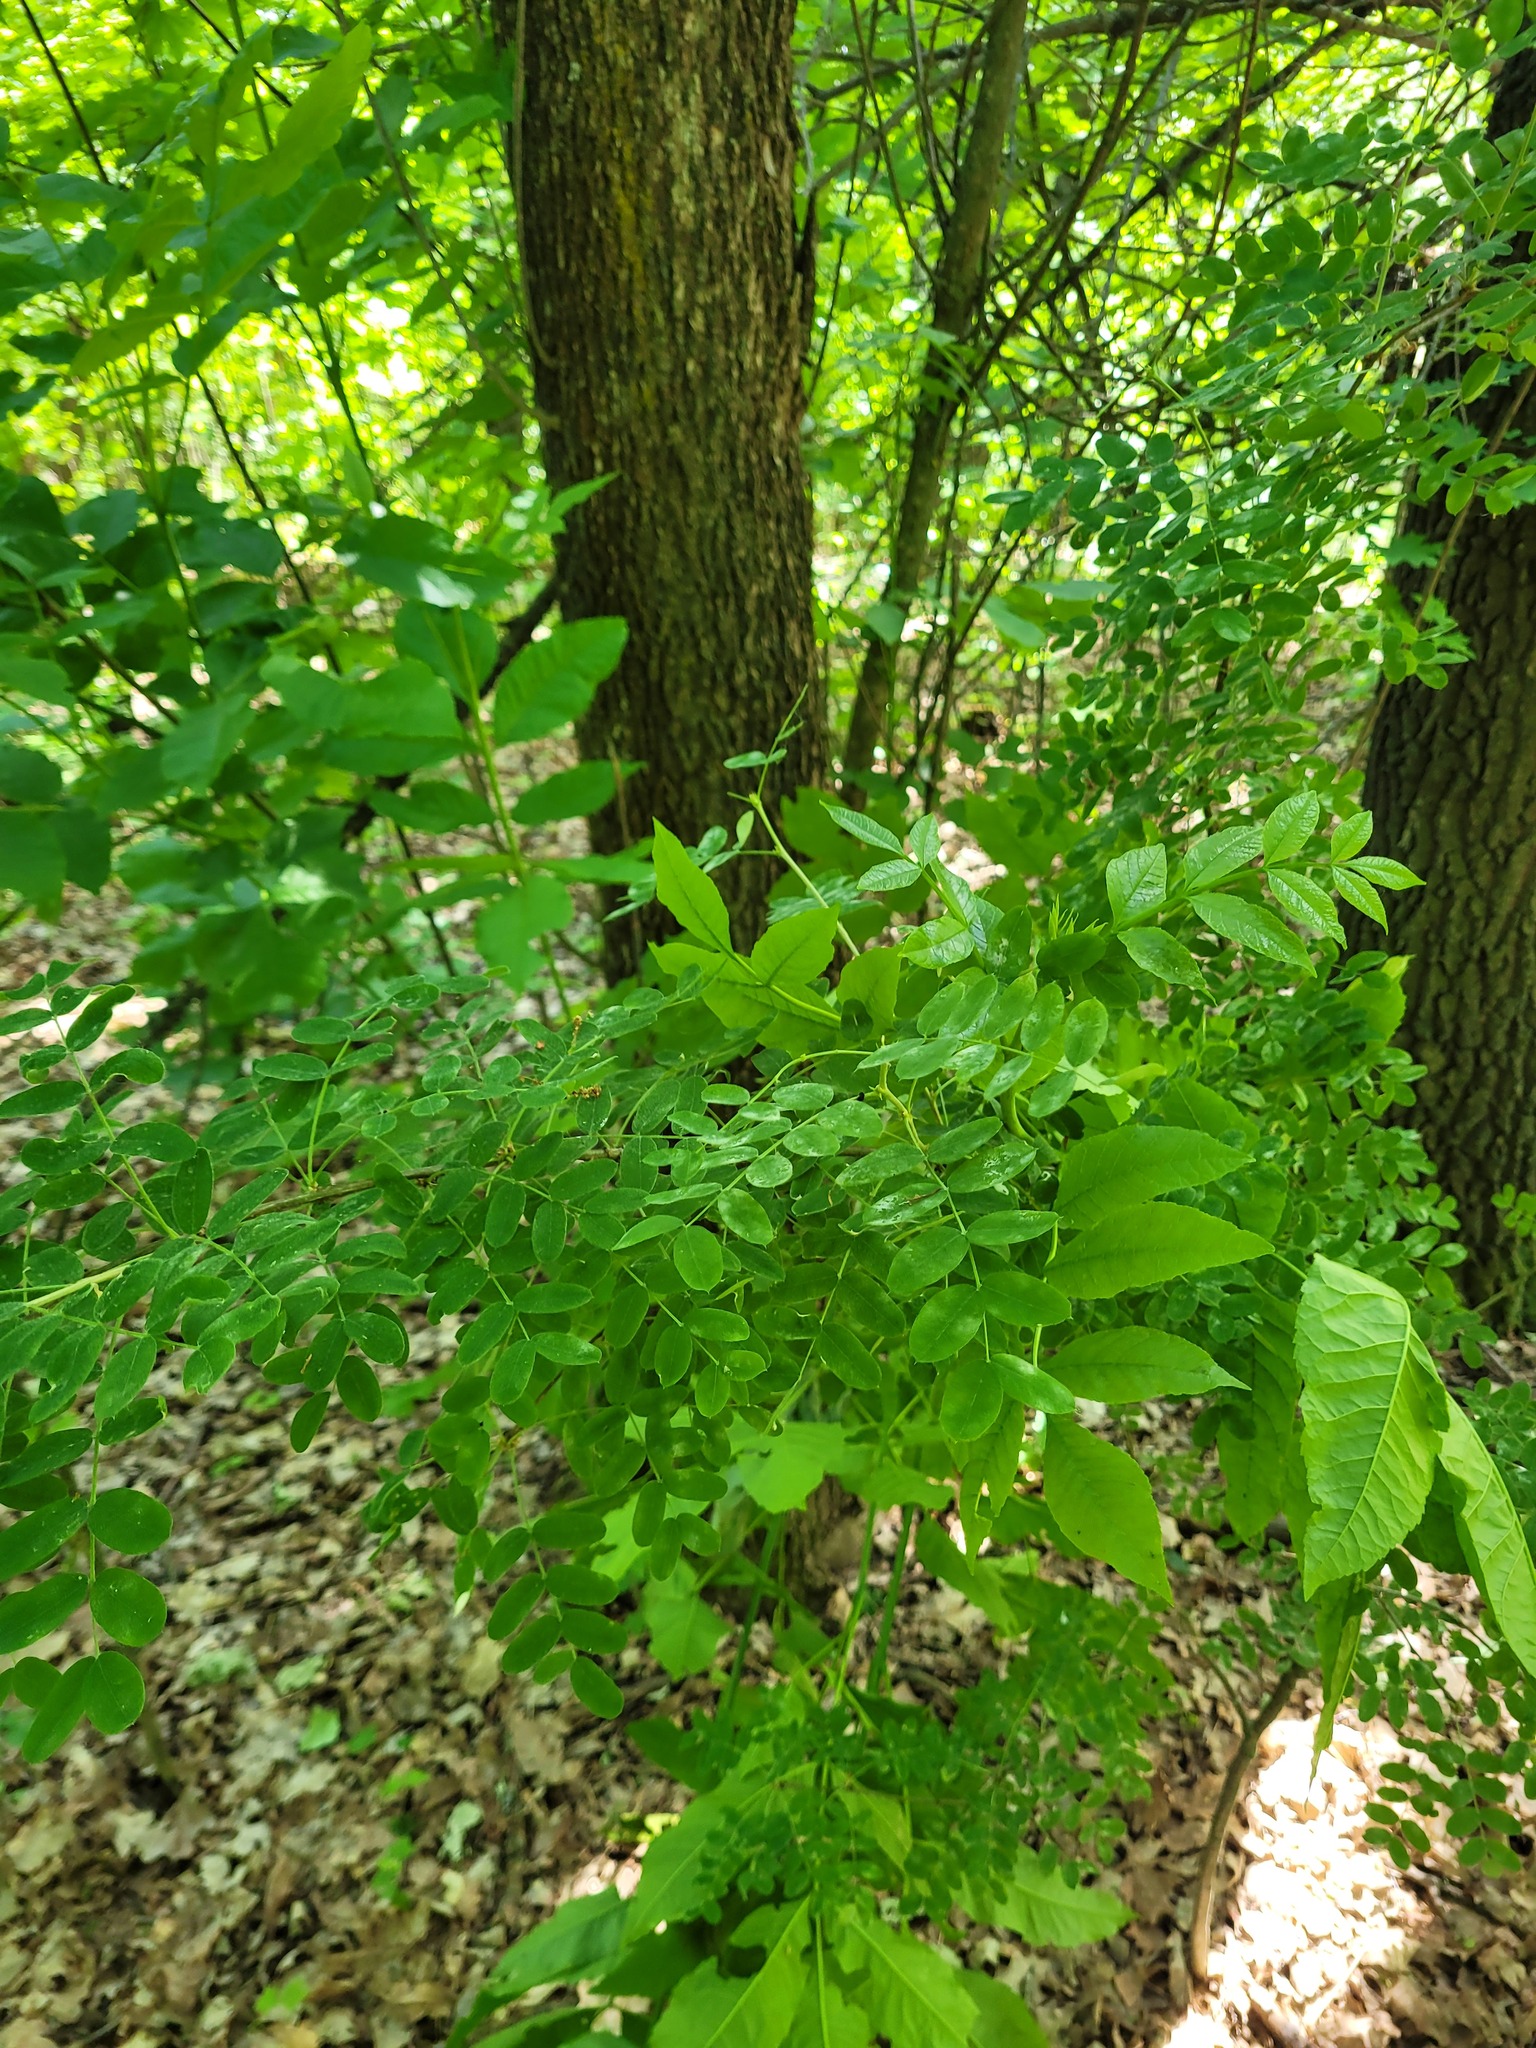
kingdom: Plantae
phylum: Tracheophyta
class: Magnoliopsida
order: Fabales
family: Fabaceae
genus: Caragana
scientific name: Caragana arborescens
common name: Siberian peashrub
